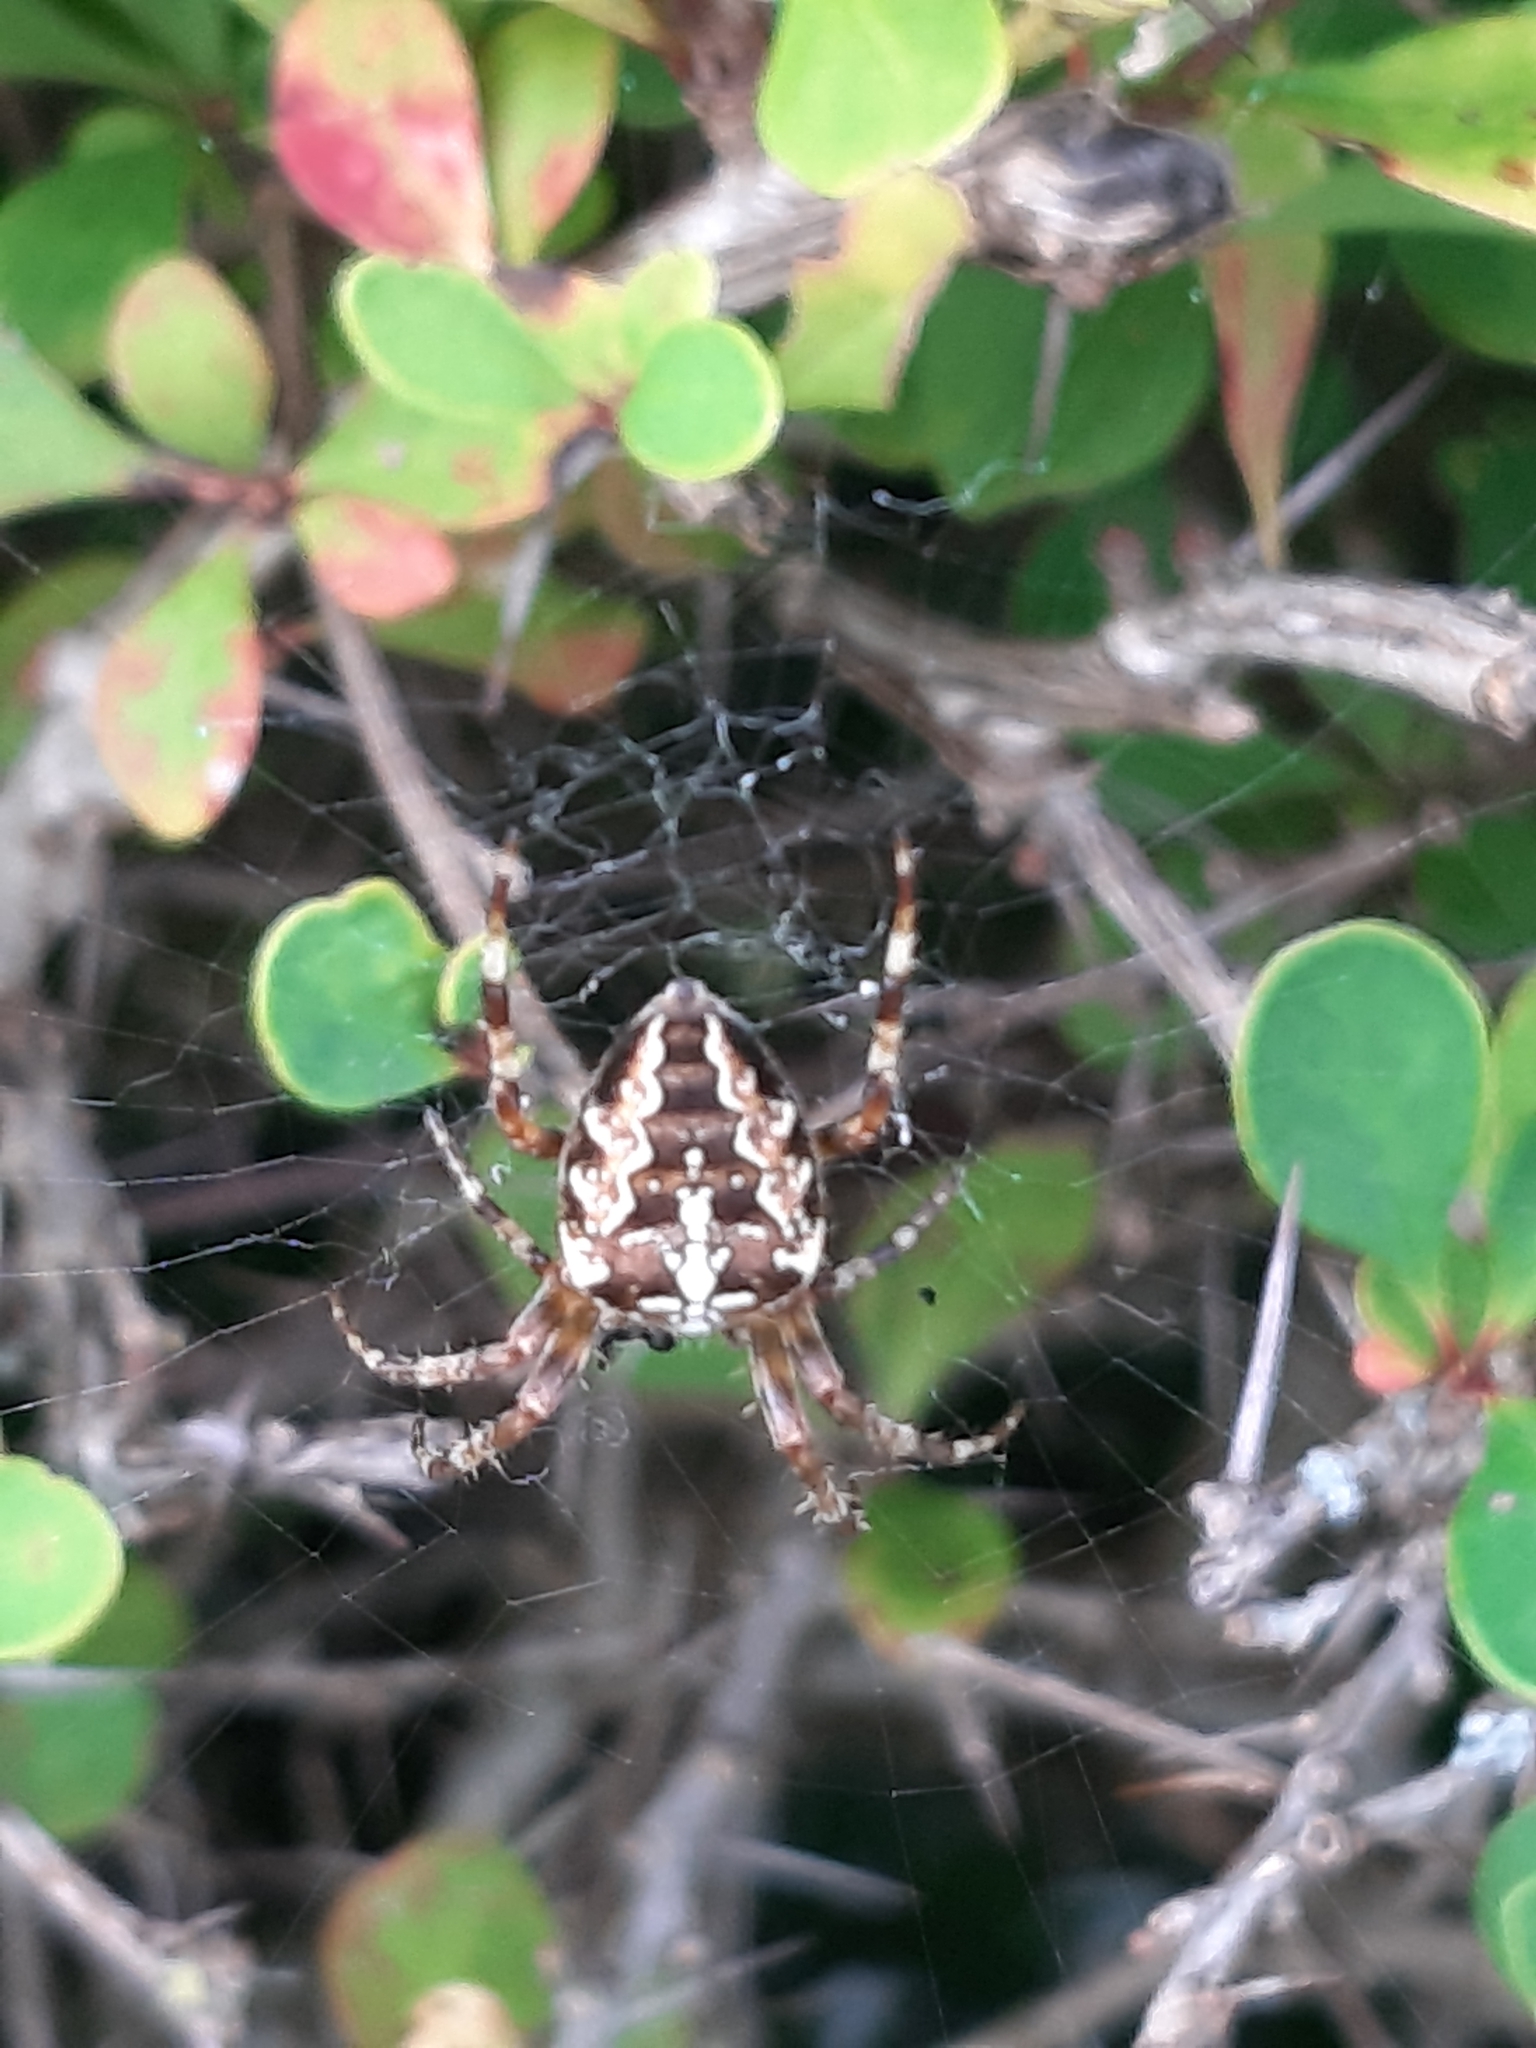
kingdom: Animalia
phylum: Arthropoda
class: Arachnida
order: Araneae
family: Araneidae
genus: Araneus
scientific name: Araneus diadematus
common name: Cross orbweaver
